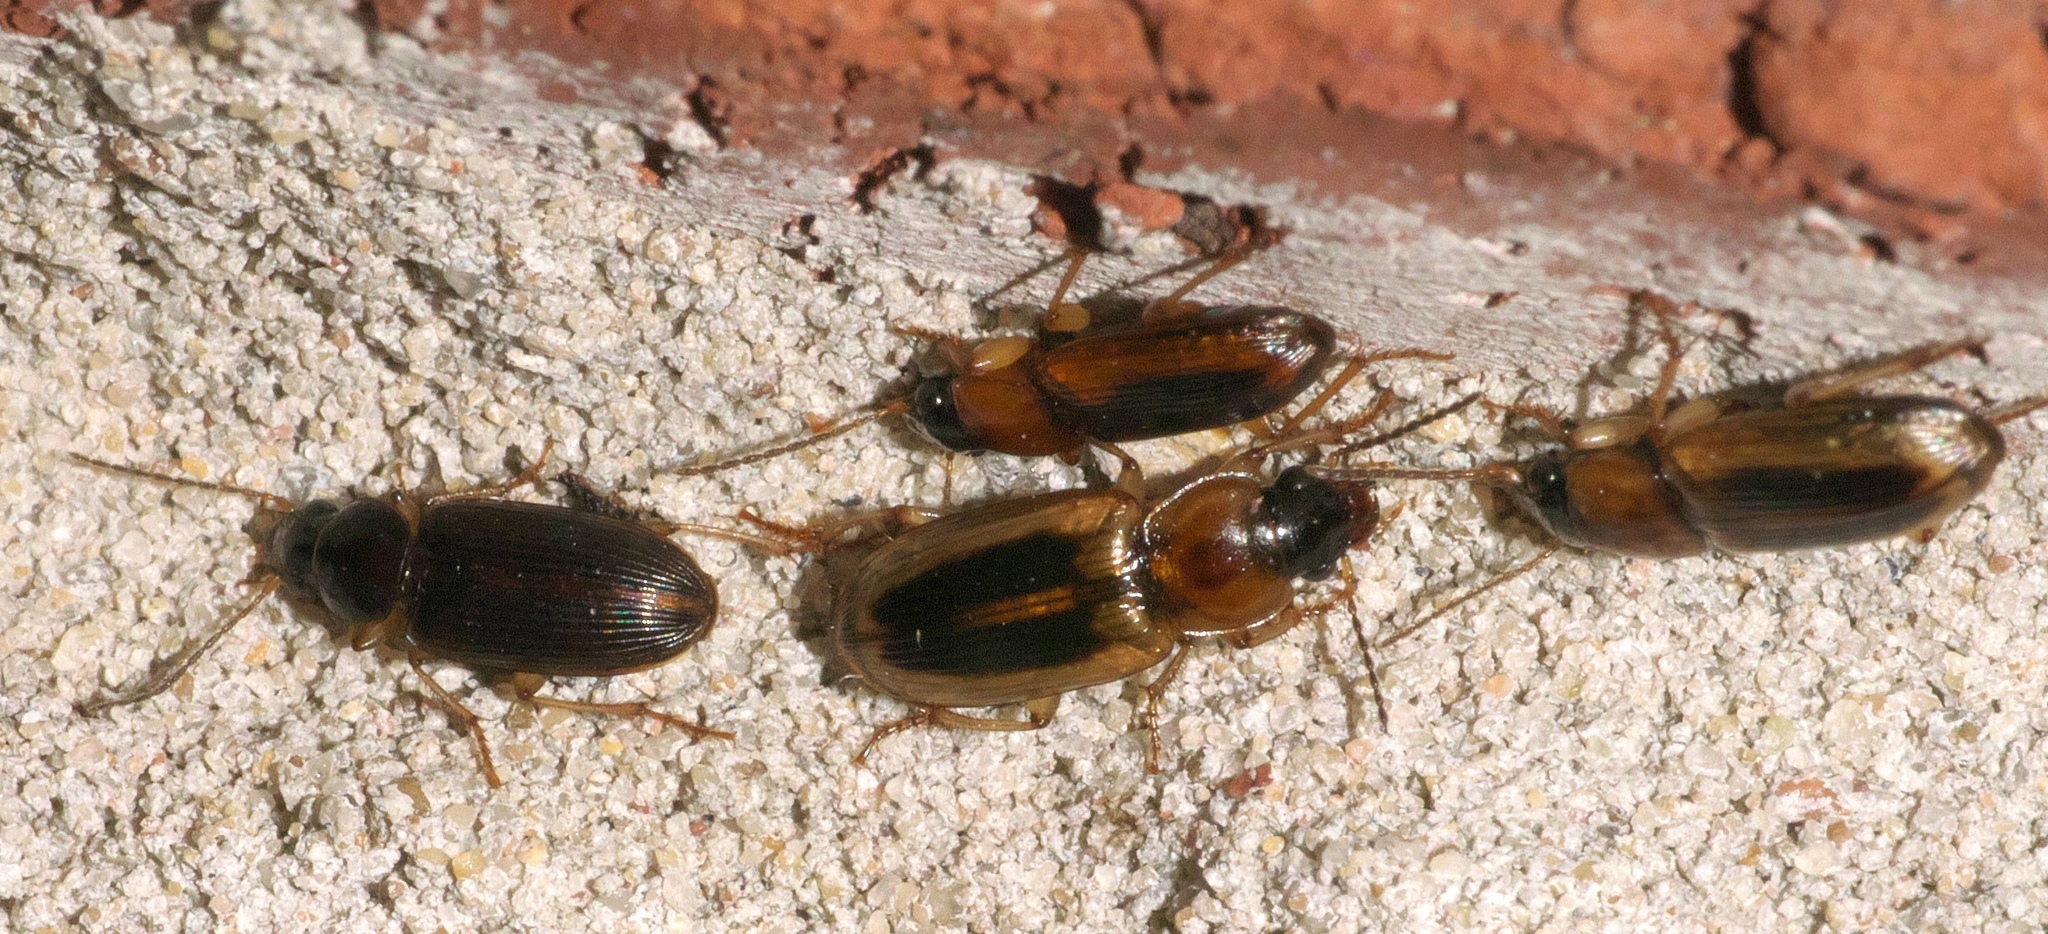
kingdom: Animalia
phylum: Arthropoda
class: Insecta
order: Coleoptera
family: Carabidae
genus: Stenolophus
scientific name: Stenolophus lecontei
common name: Leconte's seedcorn beetle
